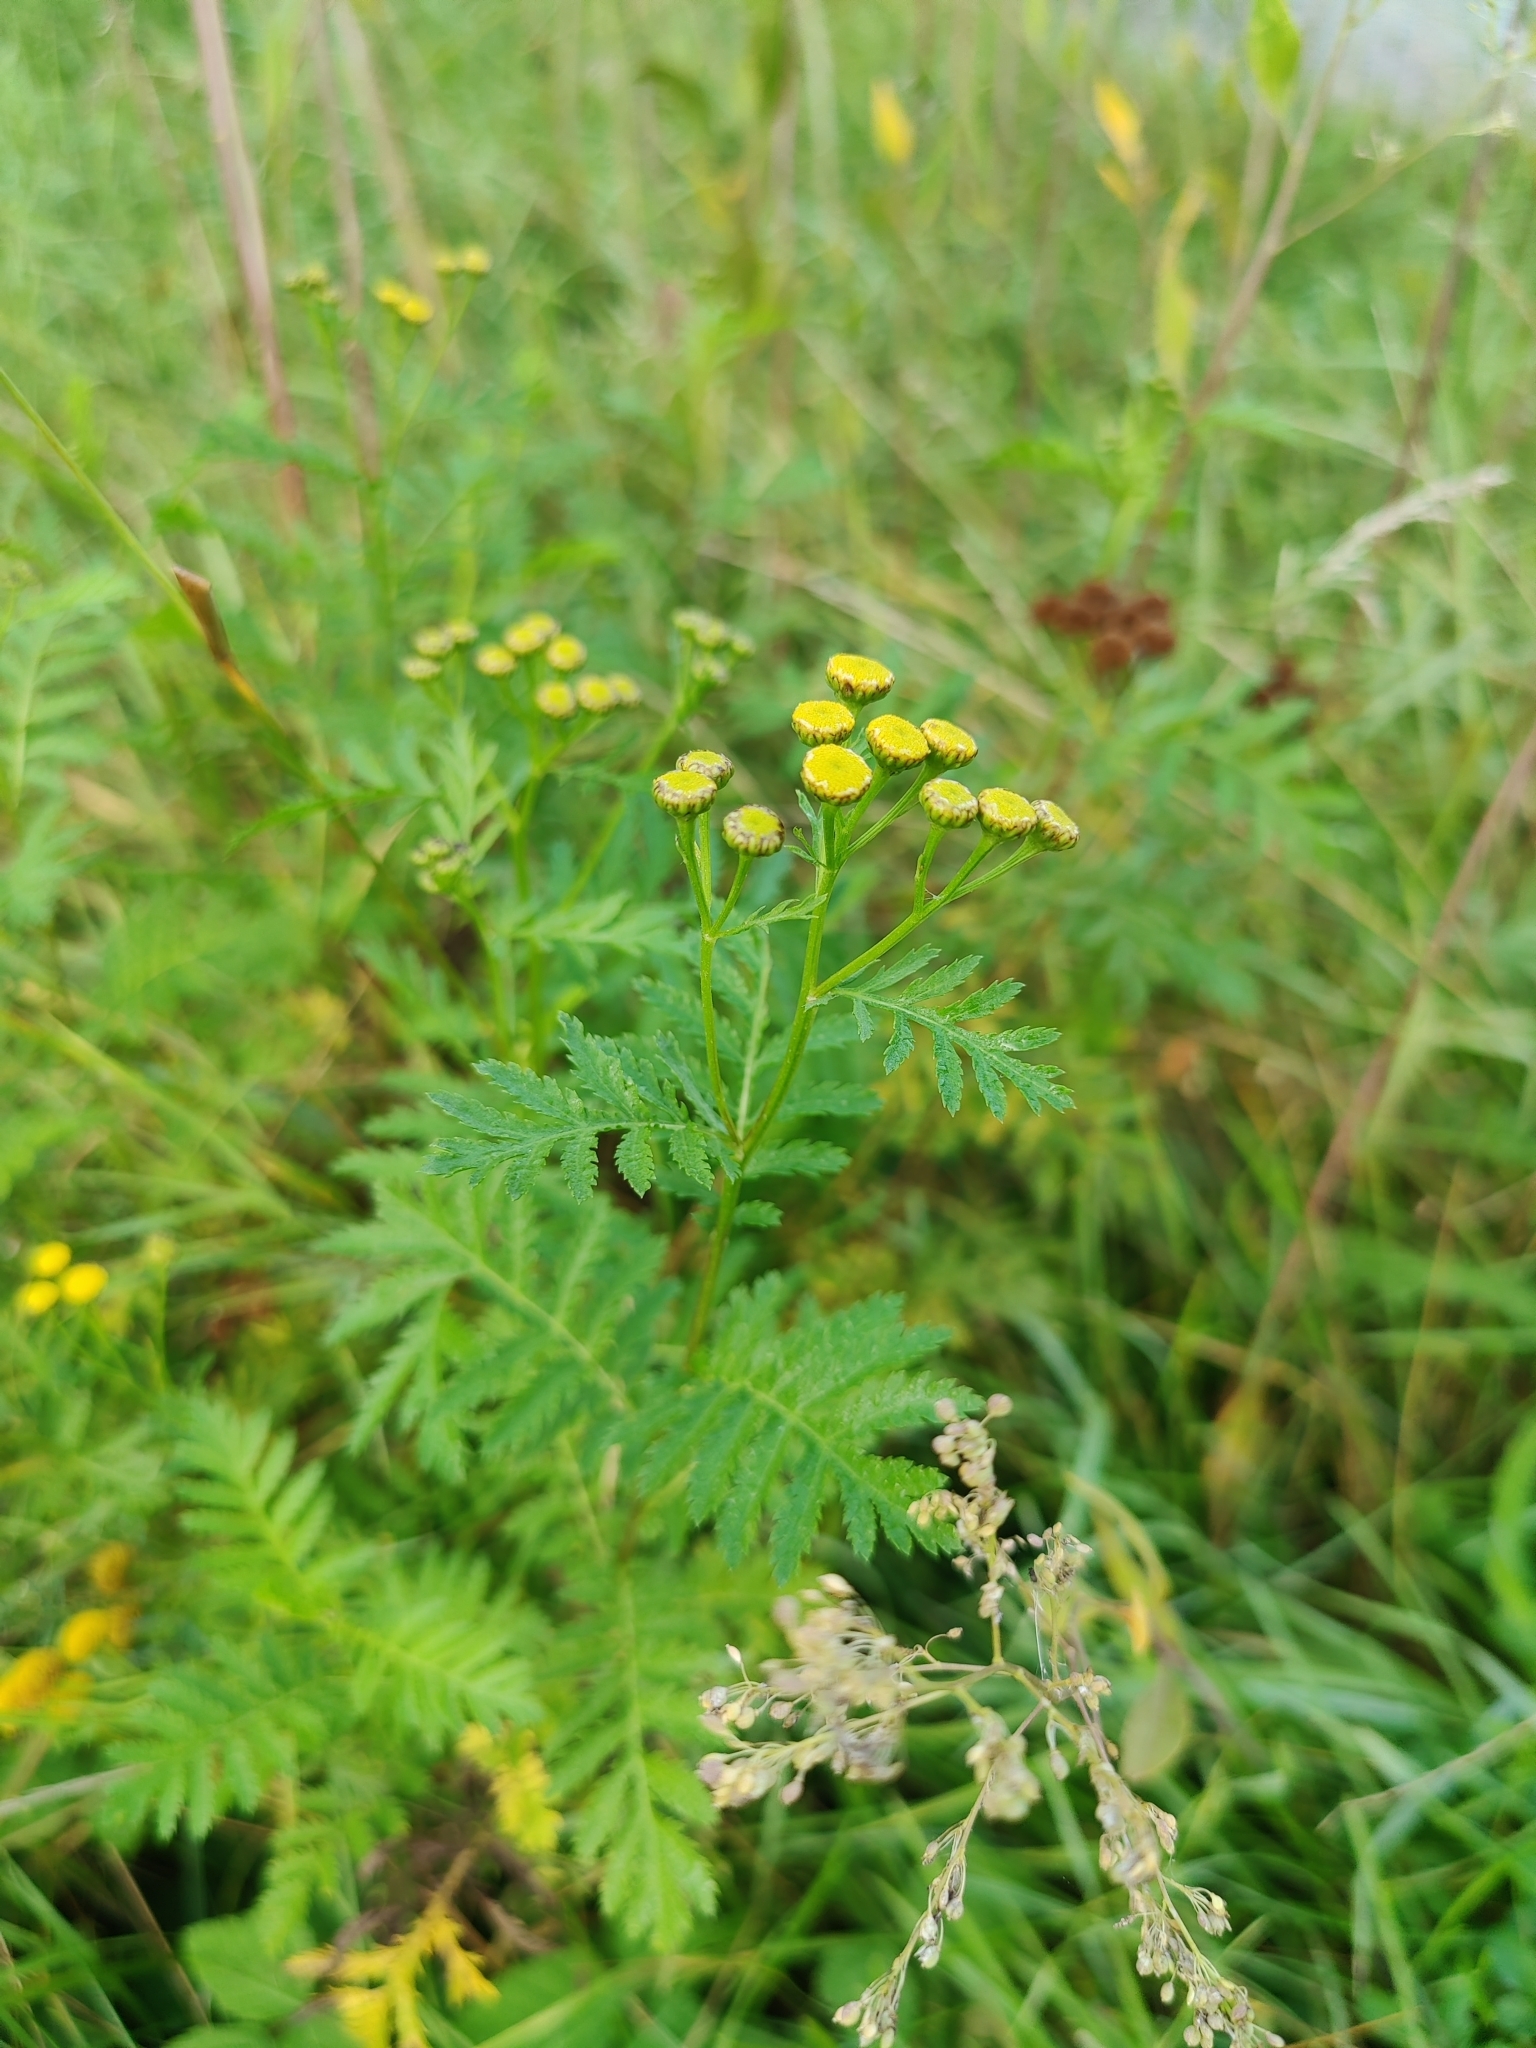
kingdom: Plantae
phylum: Tracheophyta
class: Magnoliopsida
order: Asterales
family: Asteraceae
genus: Tanacetum
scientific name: Tanacetum vulgare
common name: Common tansy
